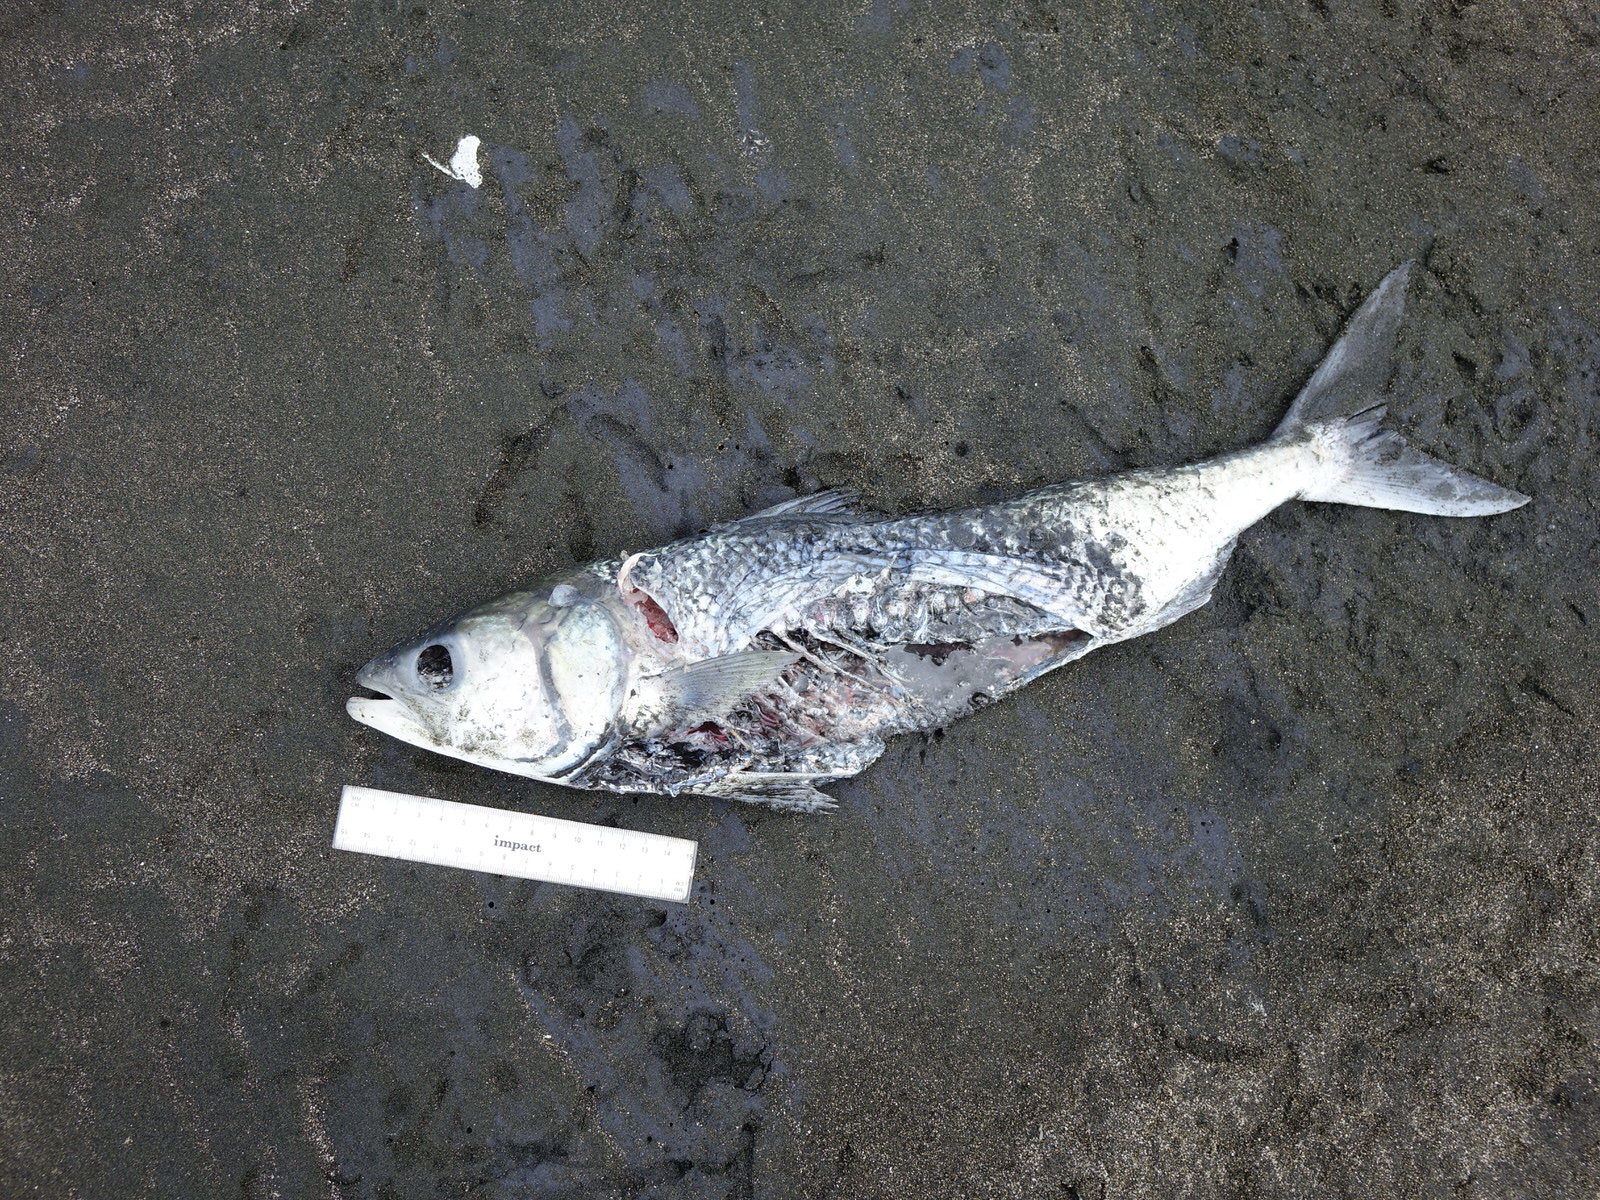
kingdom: Animalia
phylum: Chordata
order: Perciformes
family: Arripidae
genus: Arripis
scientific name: Arripis trutta
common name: Kahawai
